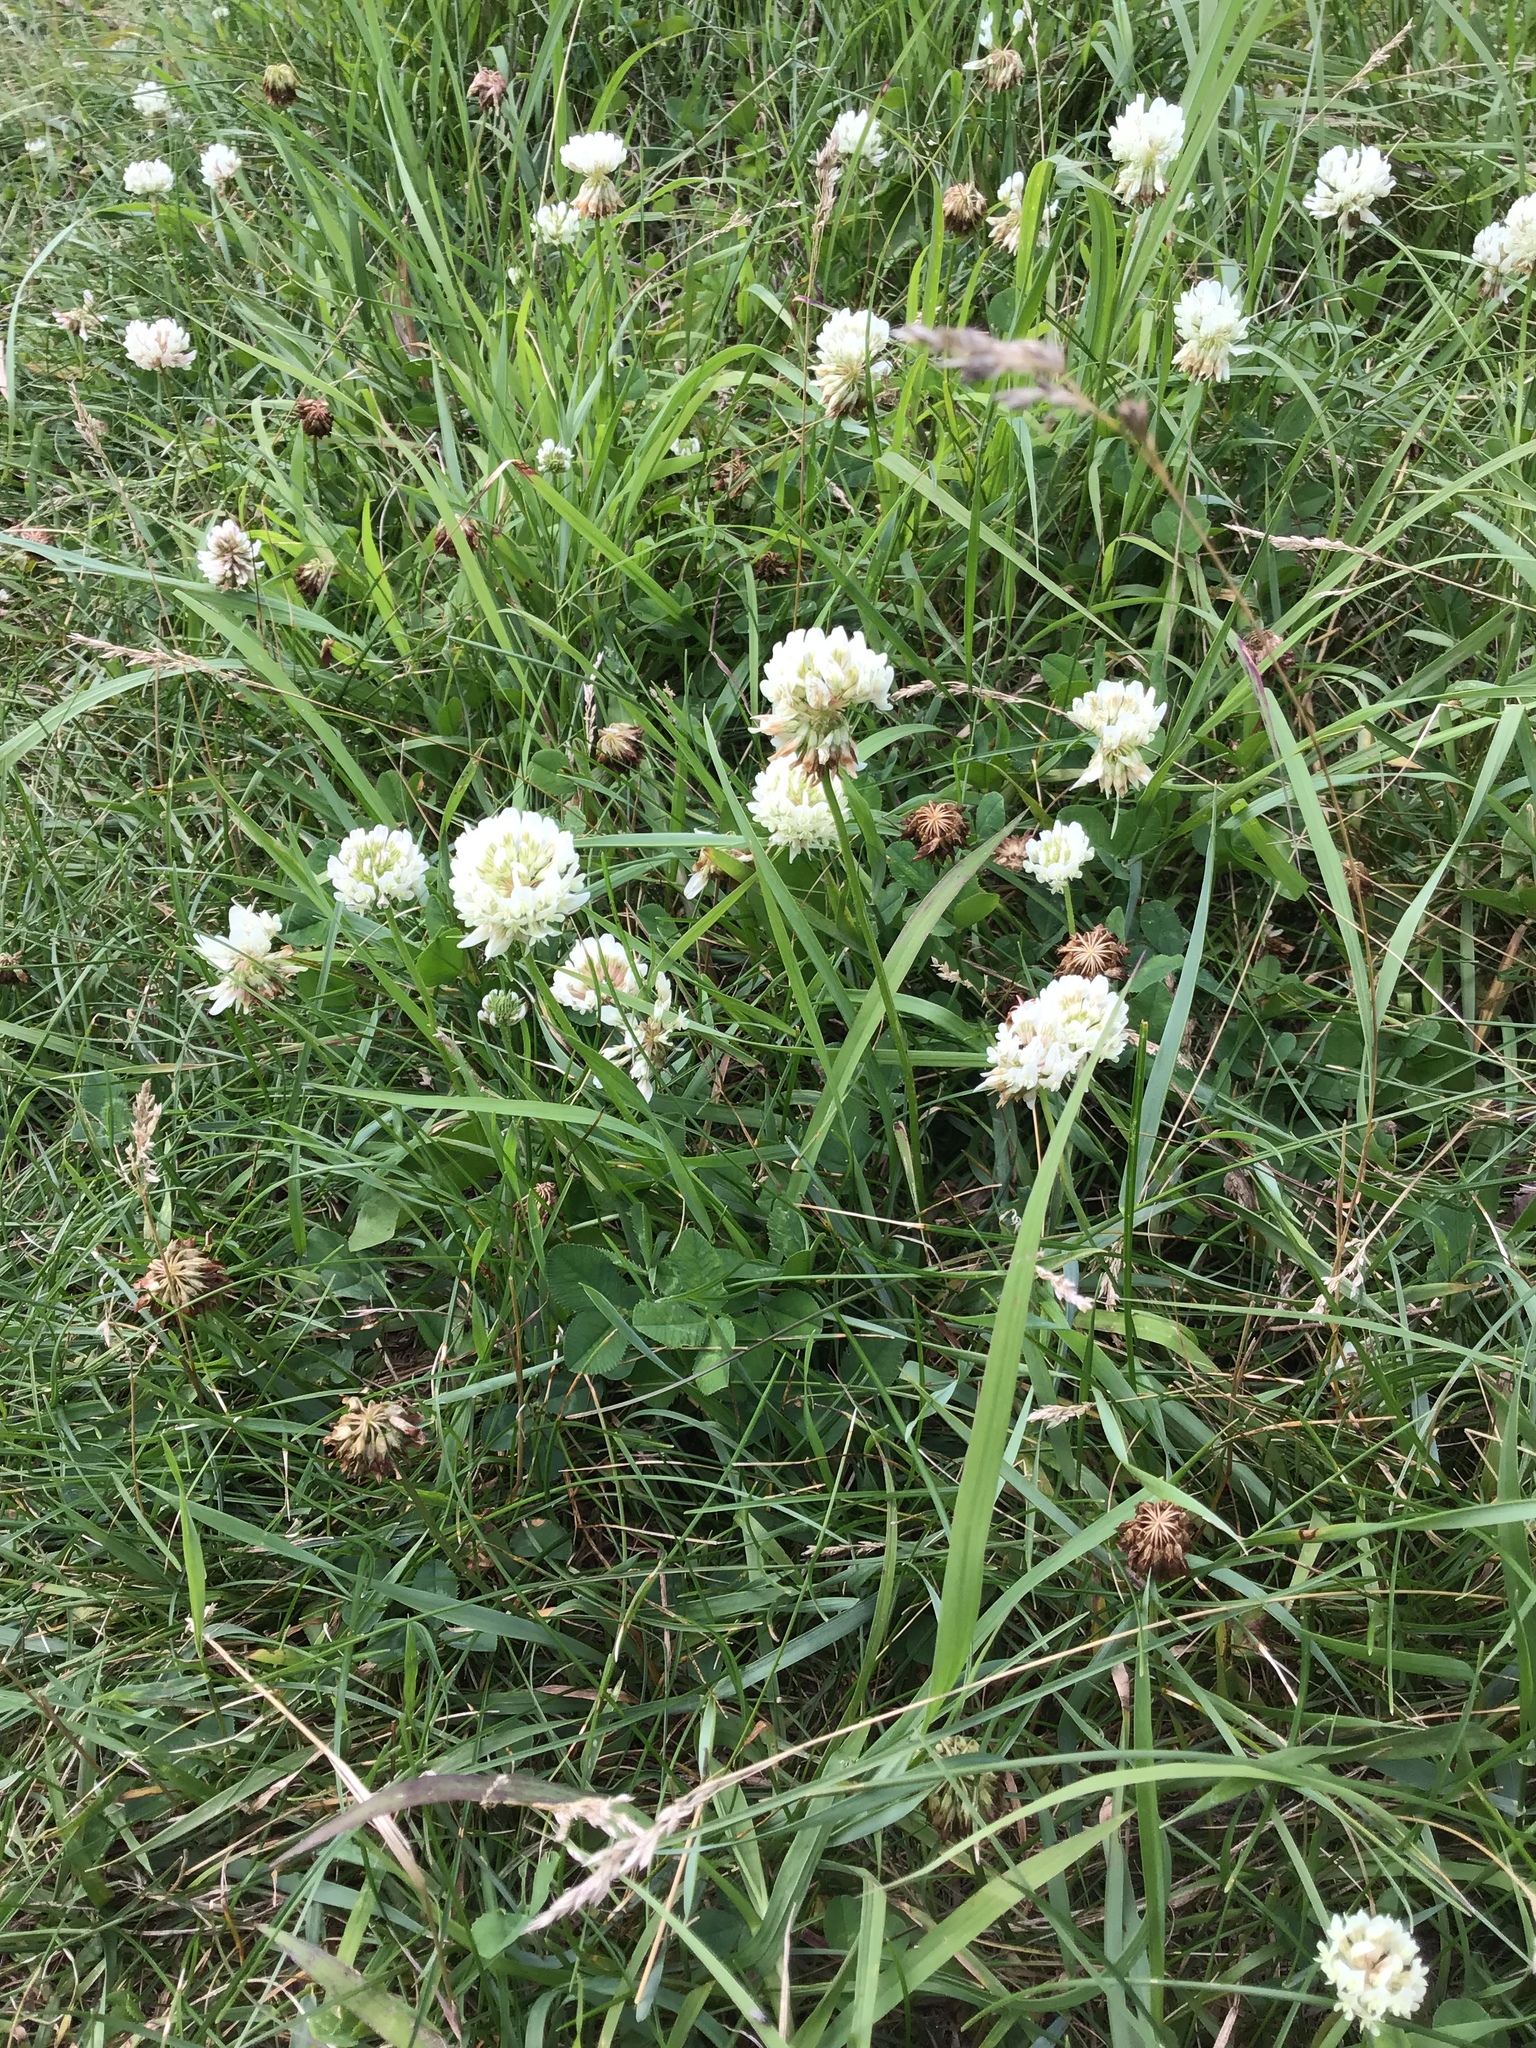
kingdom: Plantae
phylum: Tracheophyta
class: Magnoliopsida
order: Fabales
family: Fabaceae
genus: Trifolium
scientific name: Trifolium repens
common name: White clover
